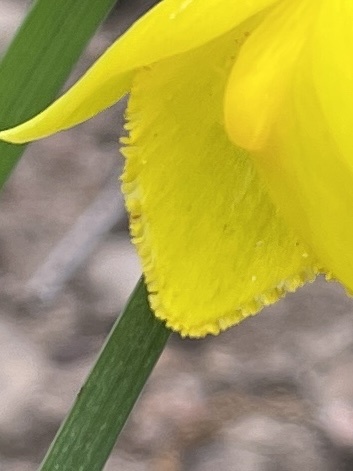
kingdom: Plantae
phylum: Tracheophyta
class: Liliopsida
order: Liliales
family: Liliaceae
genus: Calochortus
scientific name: Calochortus amabilis
